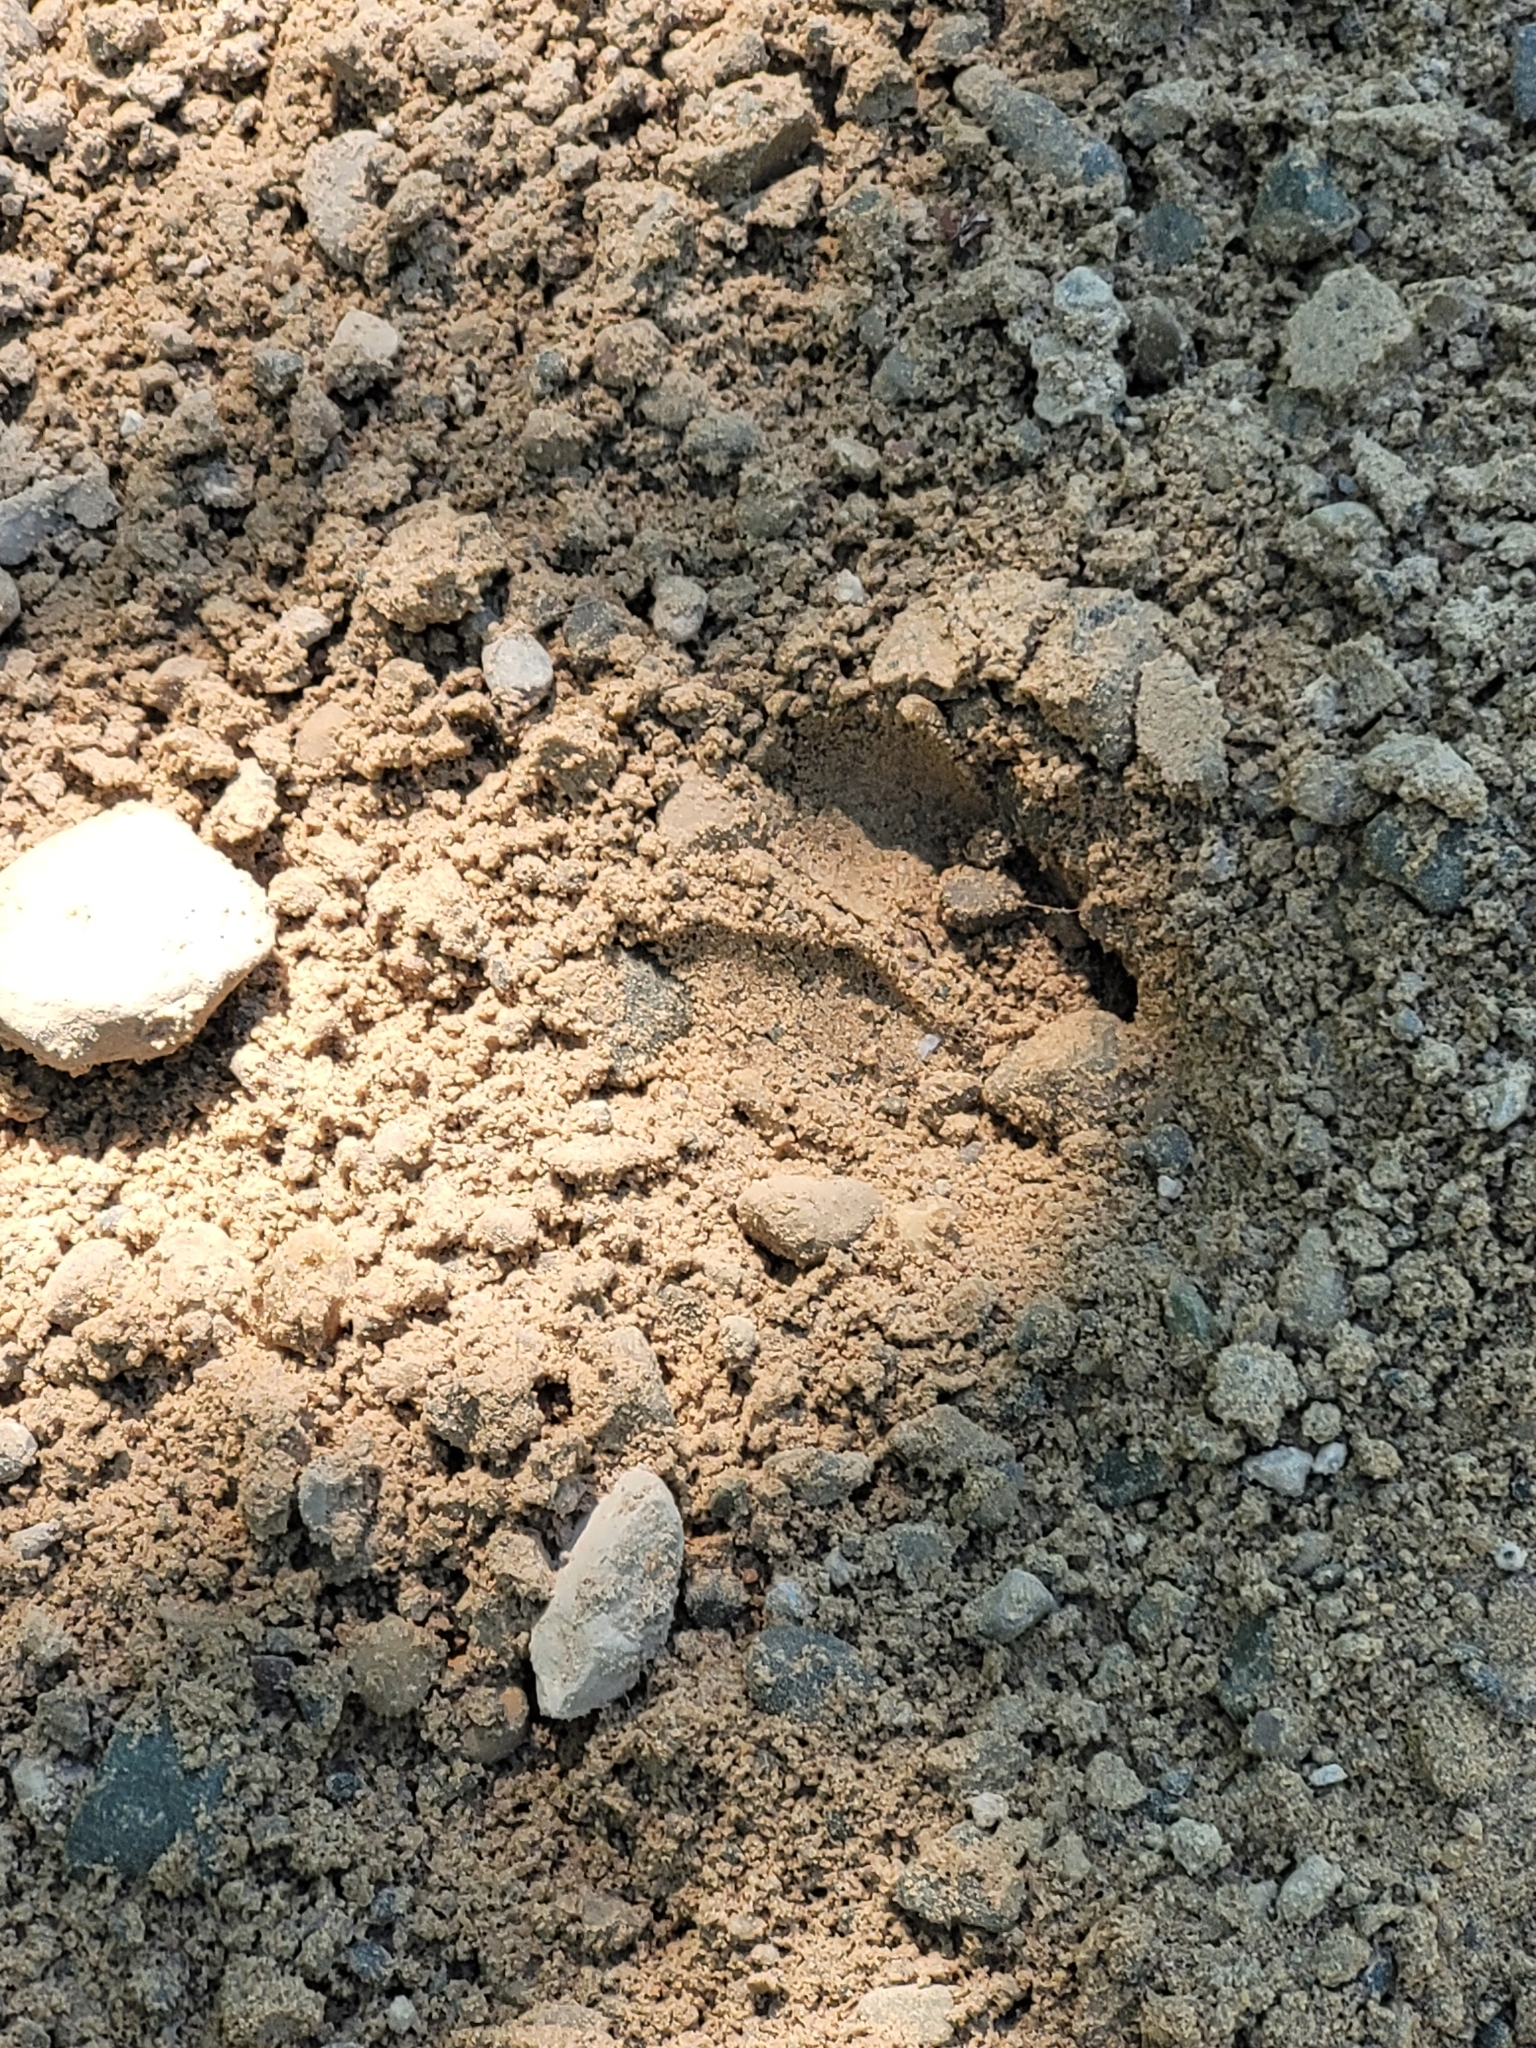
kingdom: Animalia
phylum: Chordata
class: Mammalia
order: Artiodactyla
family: Cervidae
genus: Odocoileus
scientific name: Odocoileus virginianus
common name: White-tailed deer
